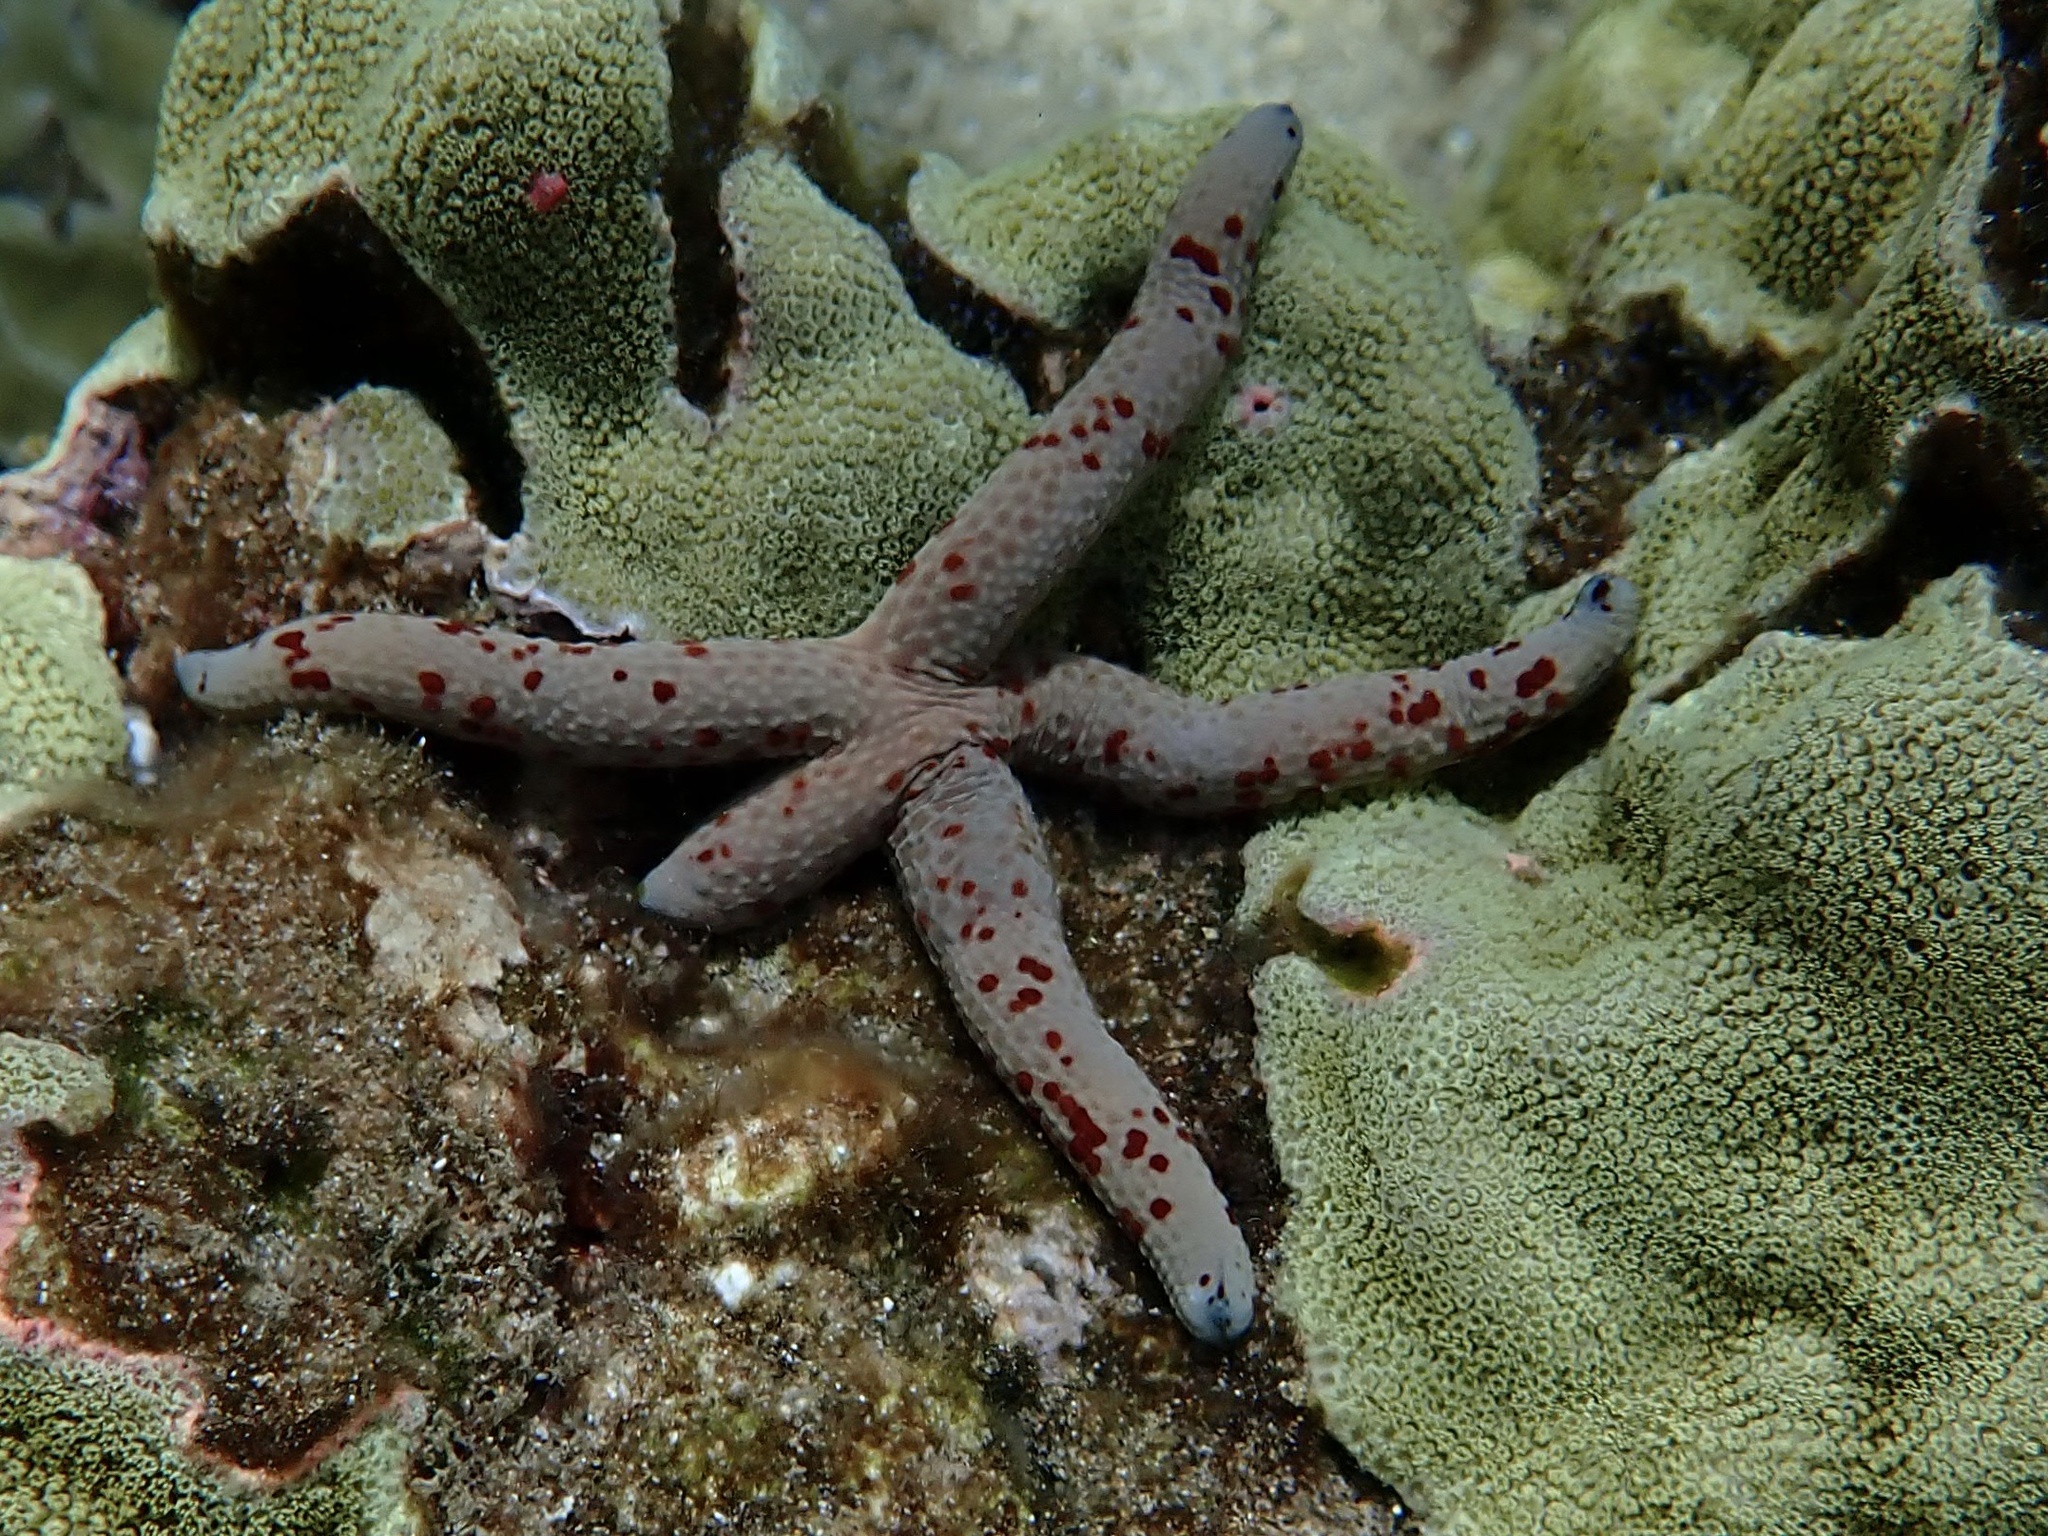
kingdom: Animalia
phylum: Echinodermata
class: Asteroidea
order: Valvatida
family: Ophidiasteridae
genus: Linckia
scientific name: Linckia multifora
